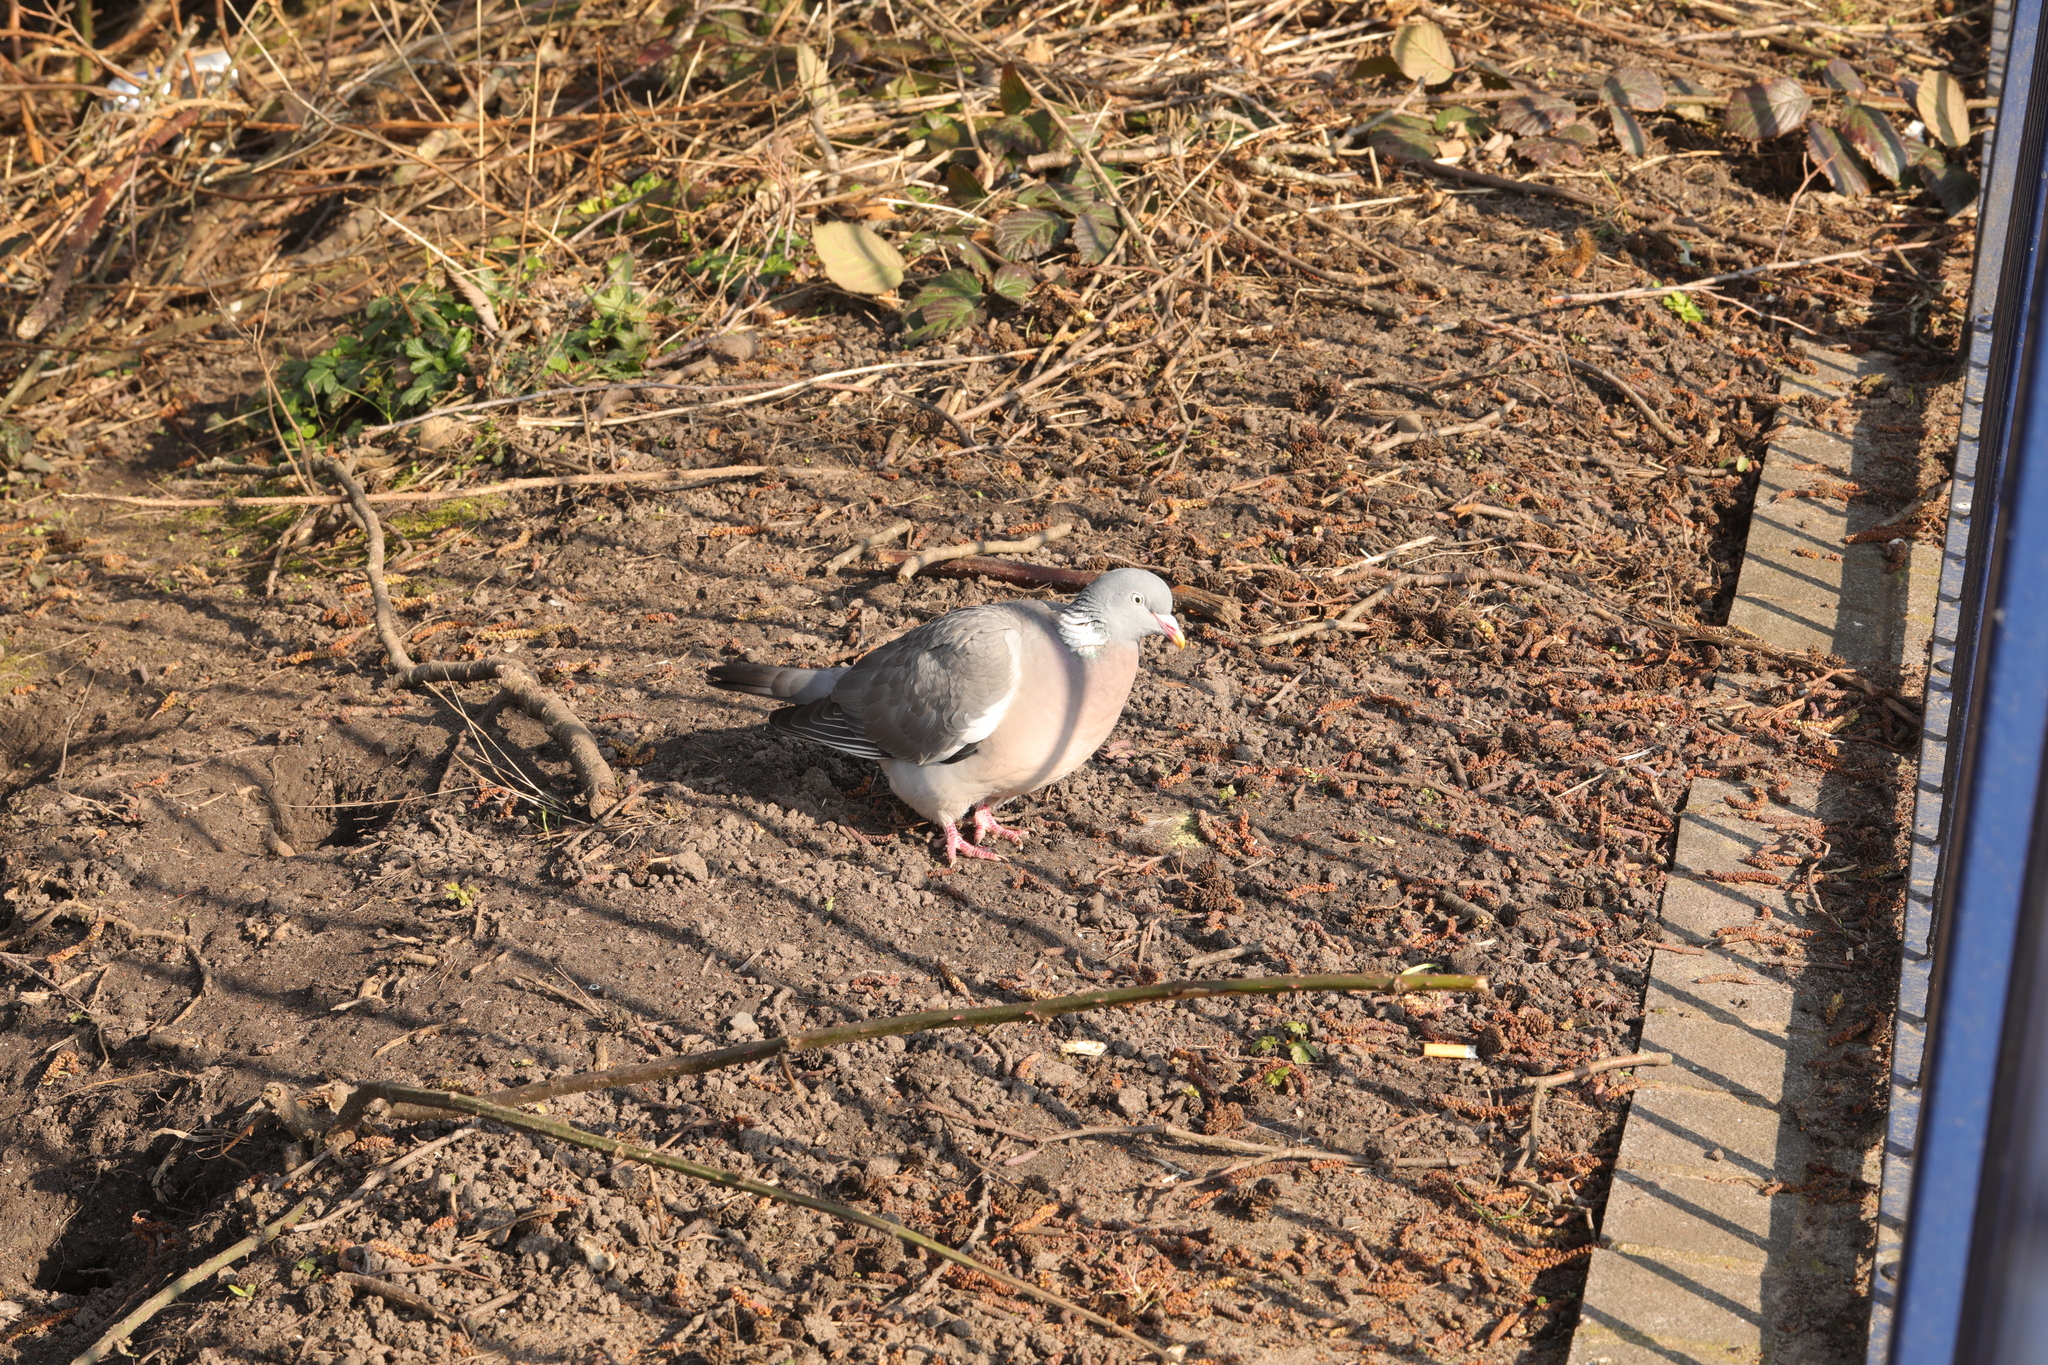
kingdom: Animalia
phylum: Chordata
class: Aves
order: Columbiformes
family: Columbidae
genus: Columba
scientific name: Columba palumbus
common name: Common wood pigeon
